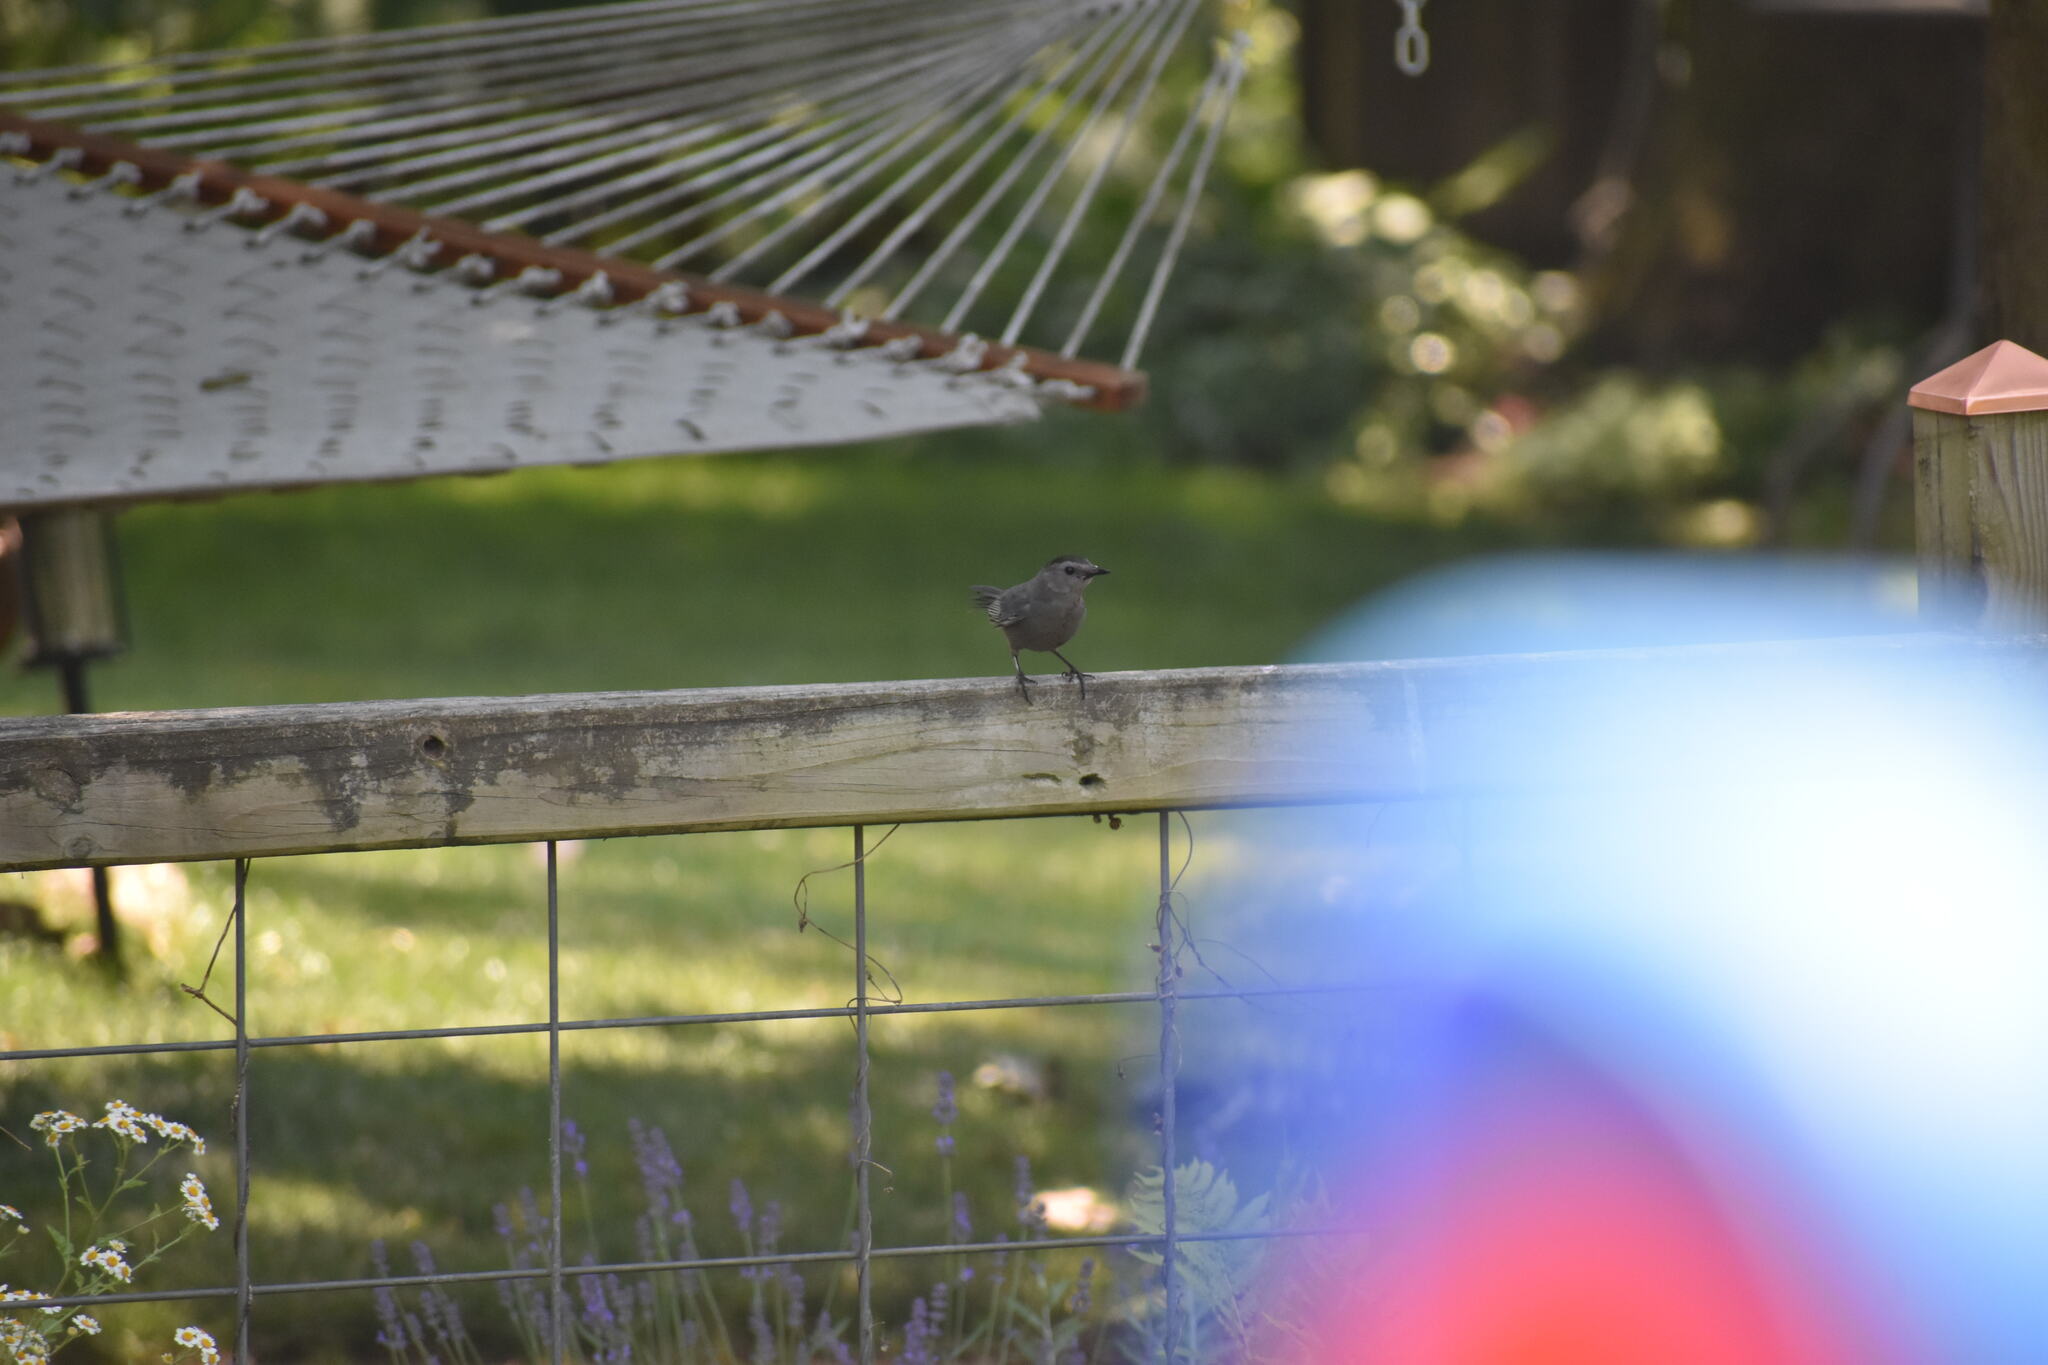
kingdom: Animalia
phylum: Chordata
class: Aves
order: Passeriformes
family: Mimidae
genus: Dumetella
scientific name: Dumetella carolinensis
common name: Gray catbird
